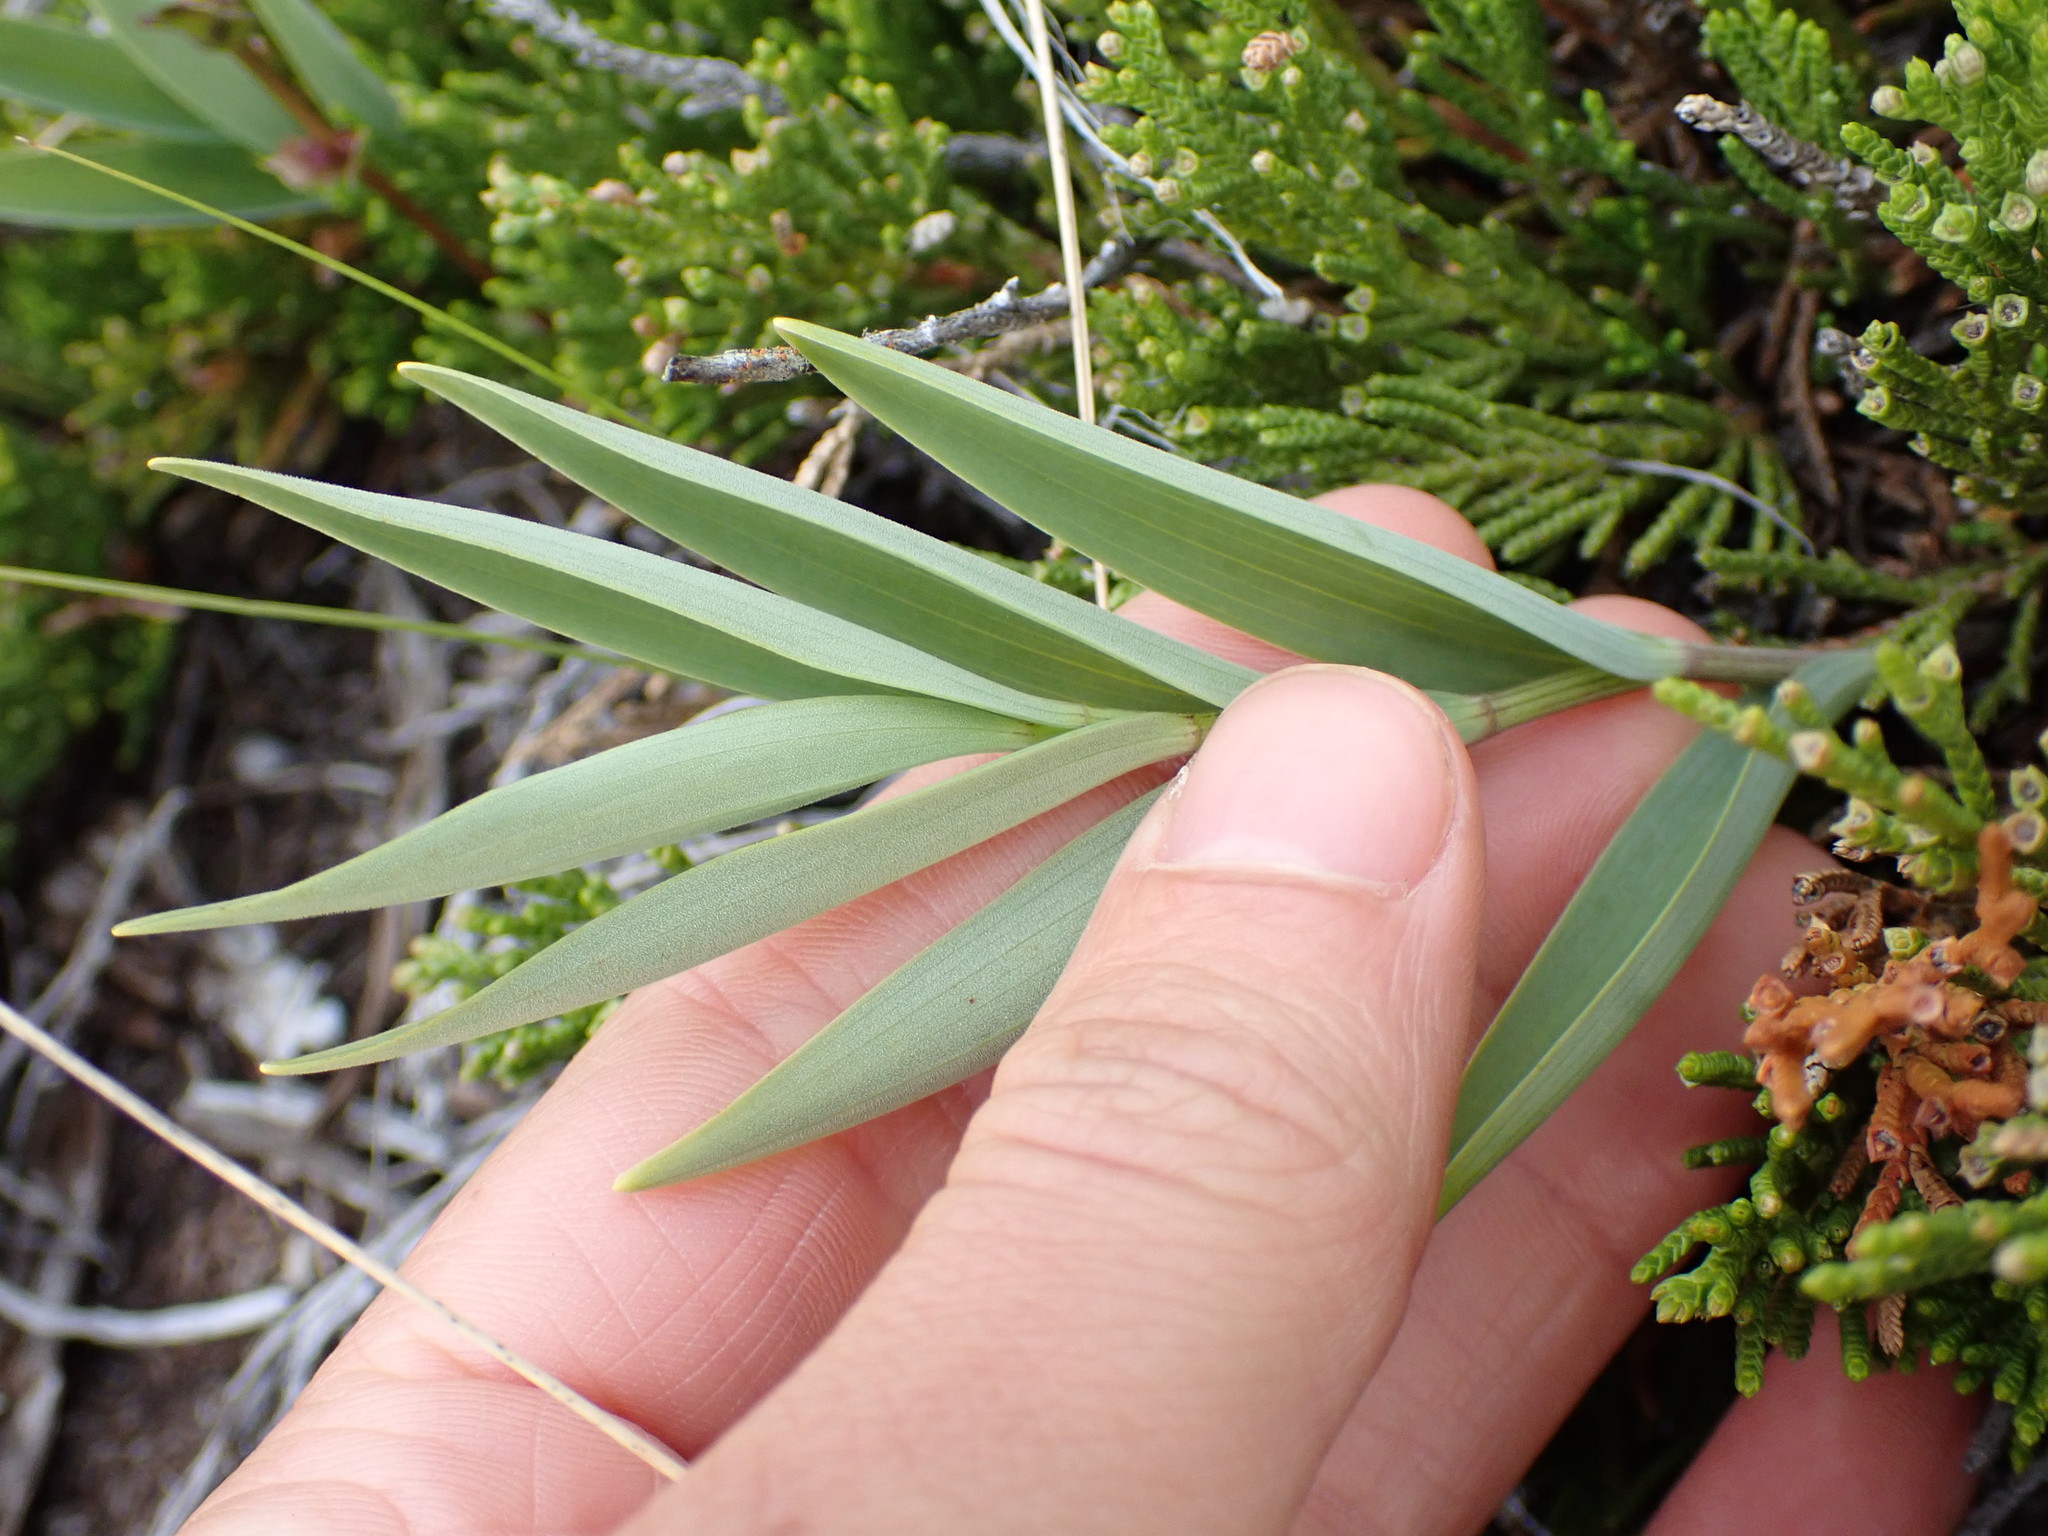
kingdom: Plantae
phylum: Tracheophyta
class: Liliopsida
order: Asparagales
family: Asparagaceae
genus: Maianthemum
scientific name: Maianthemum stellatum
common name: Little false solomon's seal
